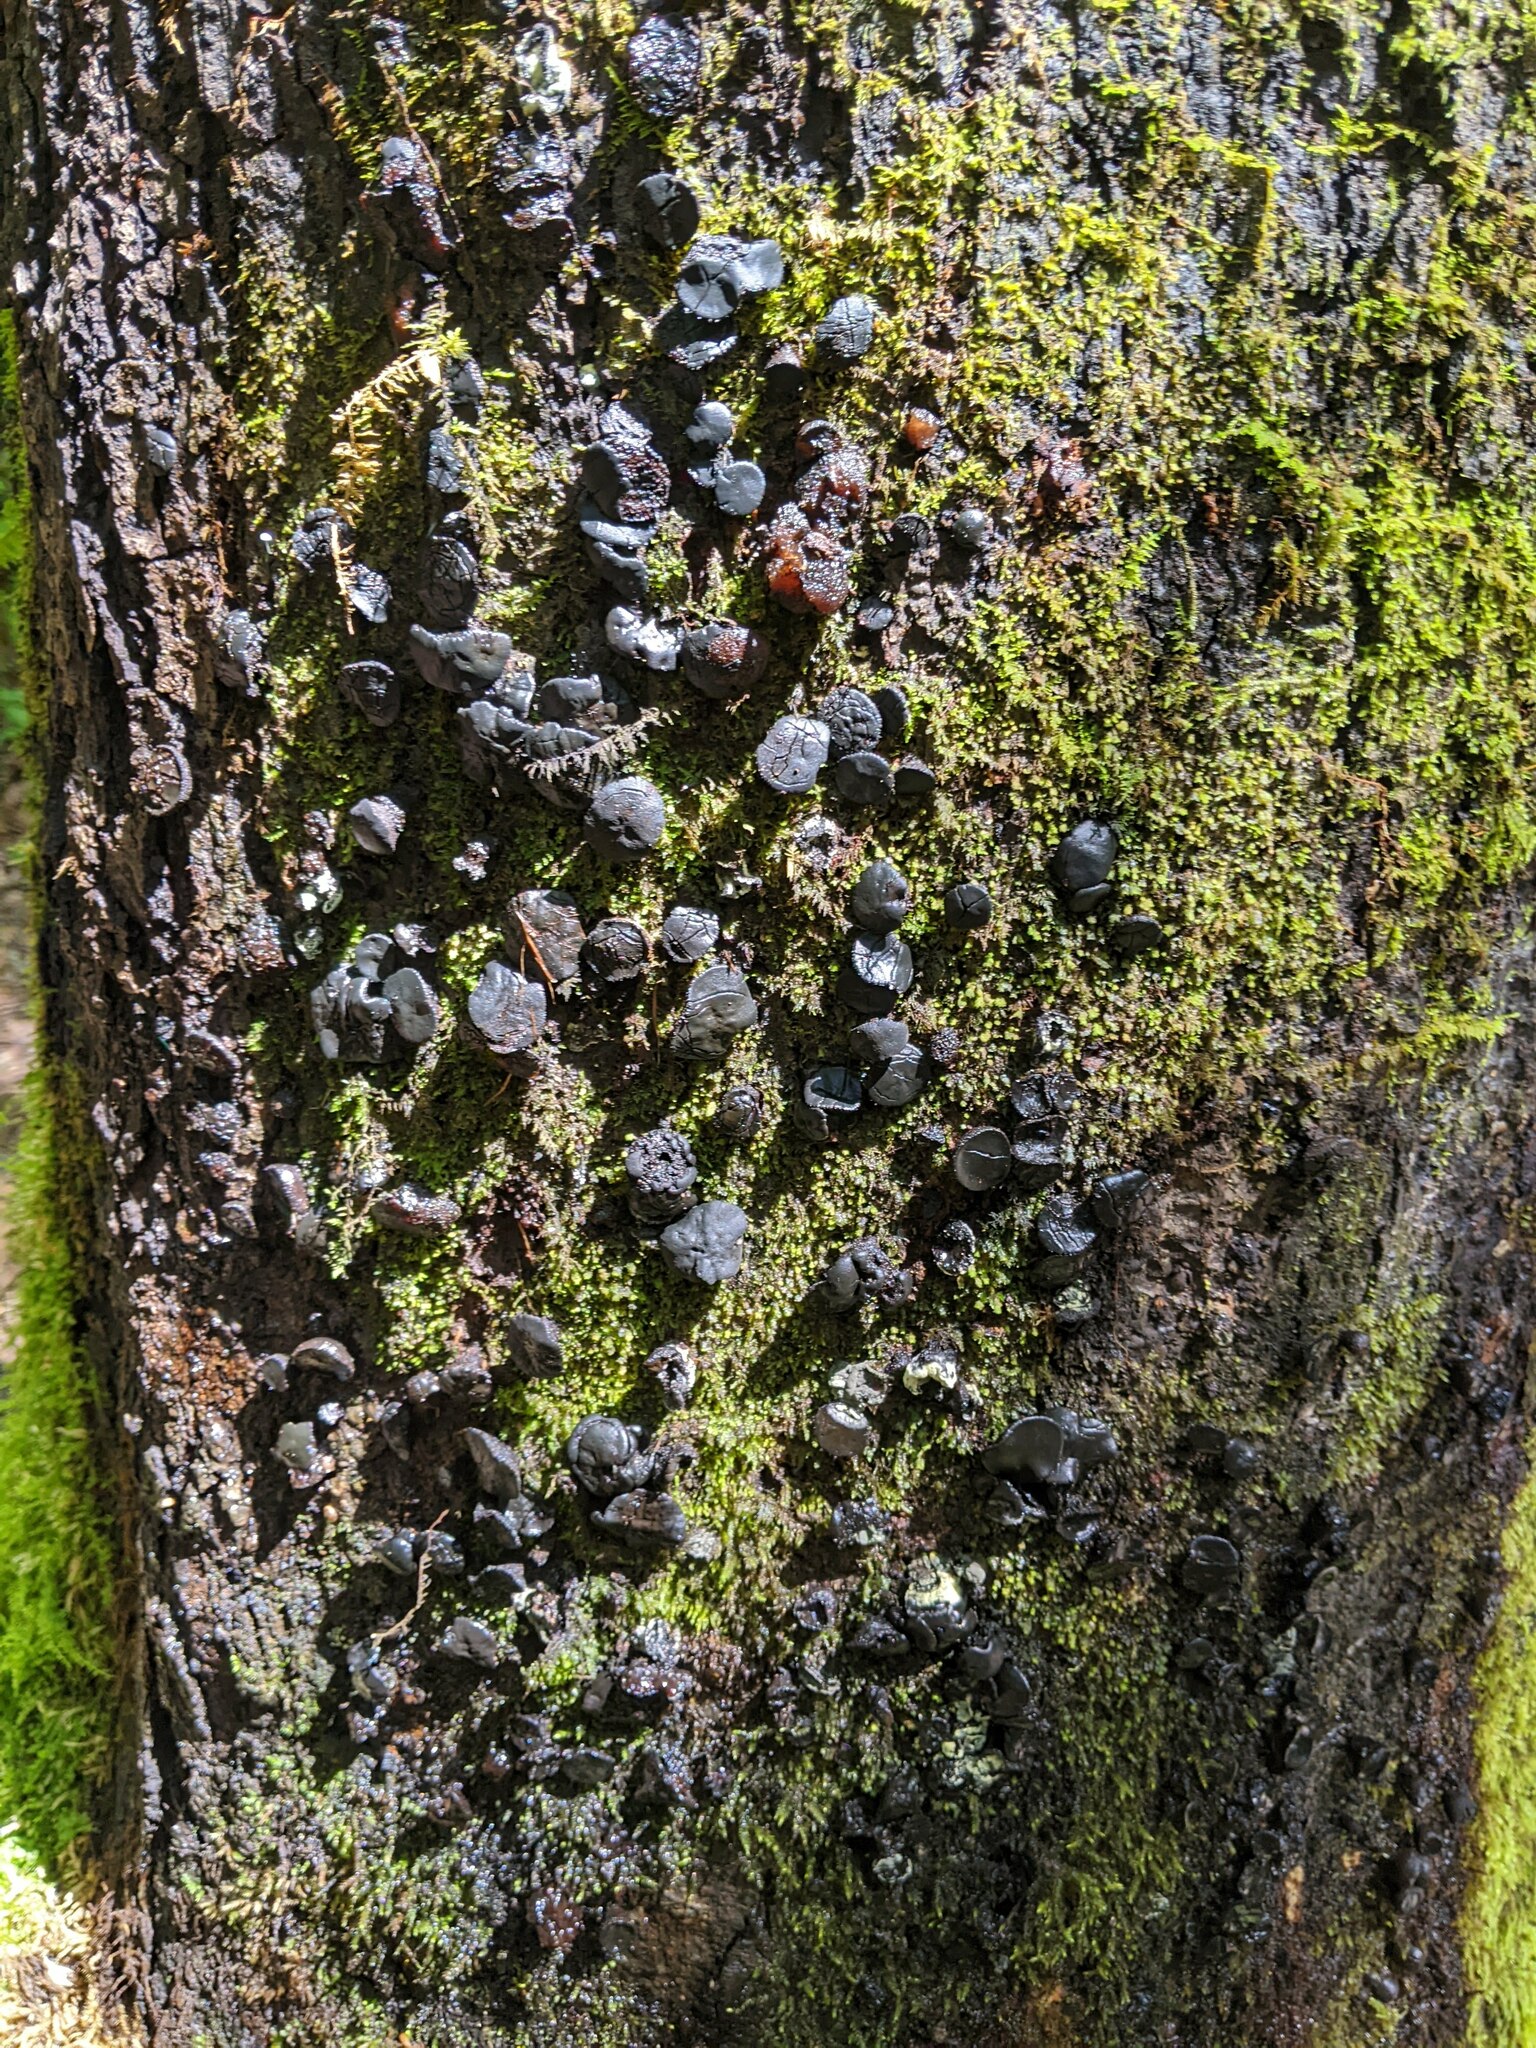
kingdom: Fungi
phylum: Ascomycota
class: Leotiomycetes
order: Phacidiales
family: Phacidiaceae
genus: Bulgaria
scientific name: Bulgaria inquinans
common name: Black bulgar
